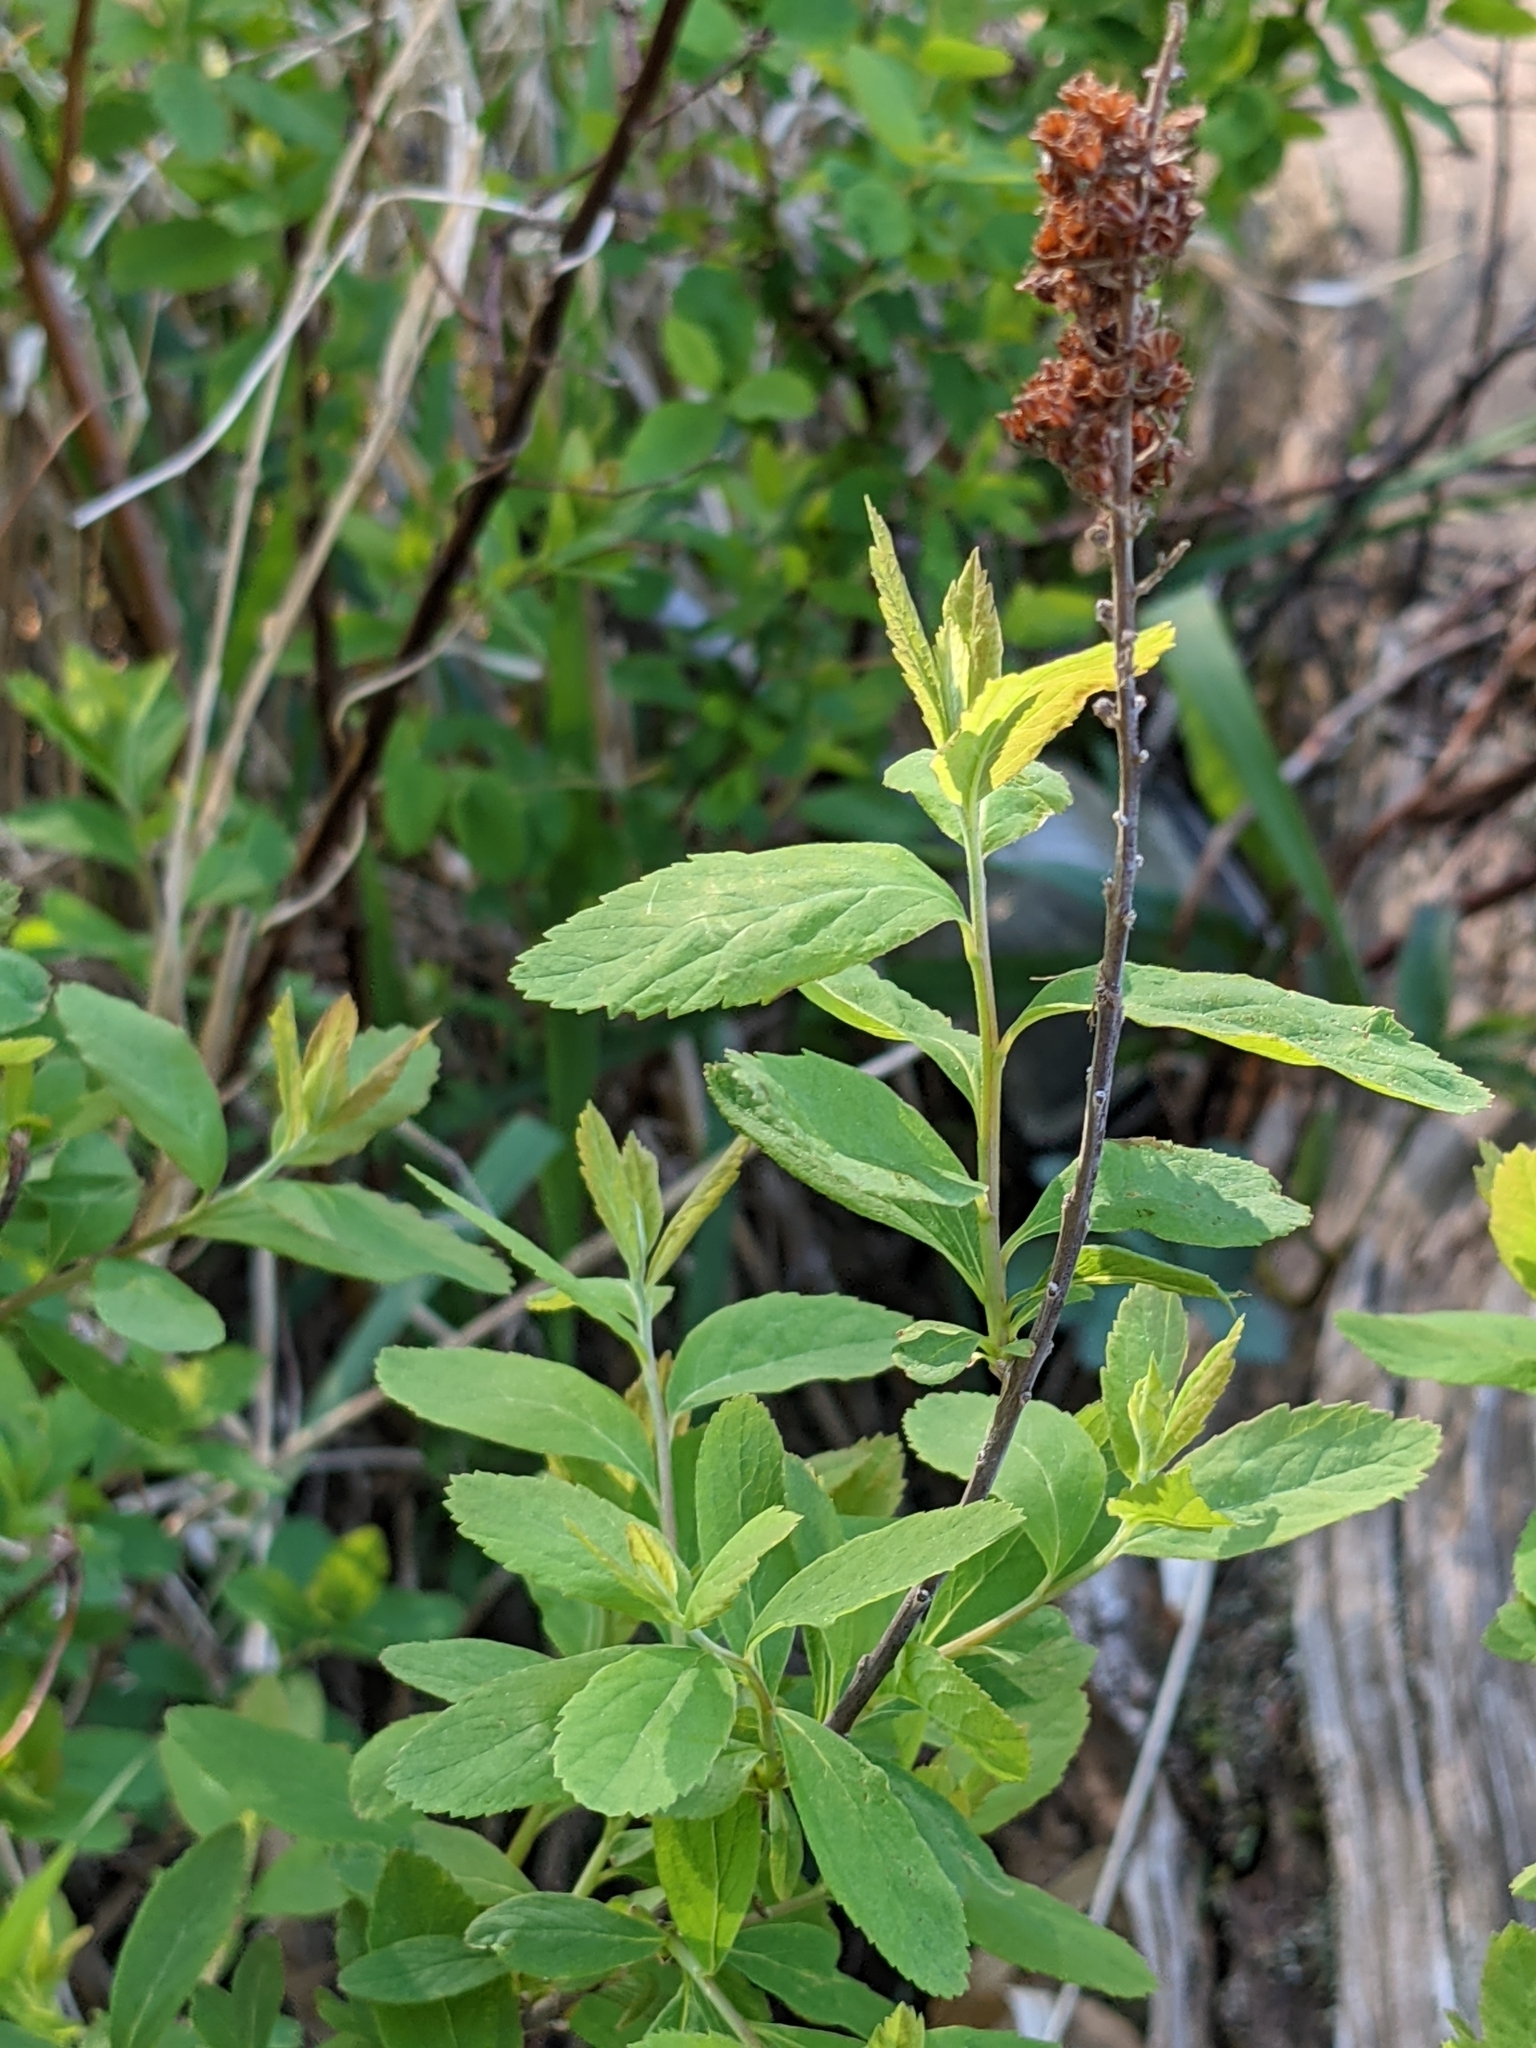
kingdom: Plantae
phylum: Tracheophyta
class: Magnoliopsida
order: Rosales
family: Rosaceae
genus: Spiraea
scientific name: Spiraea douglasii
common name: Steeplebush
